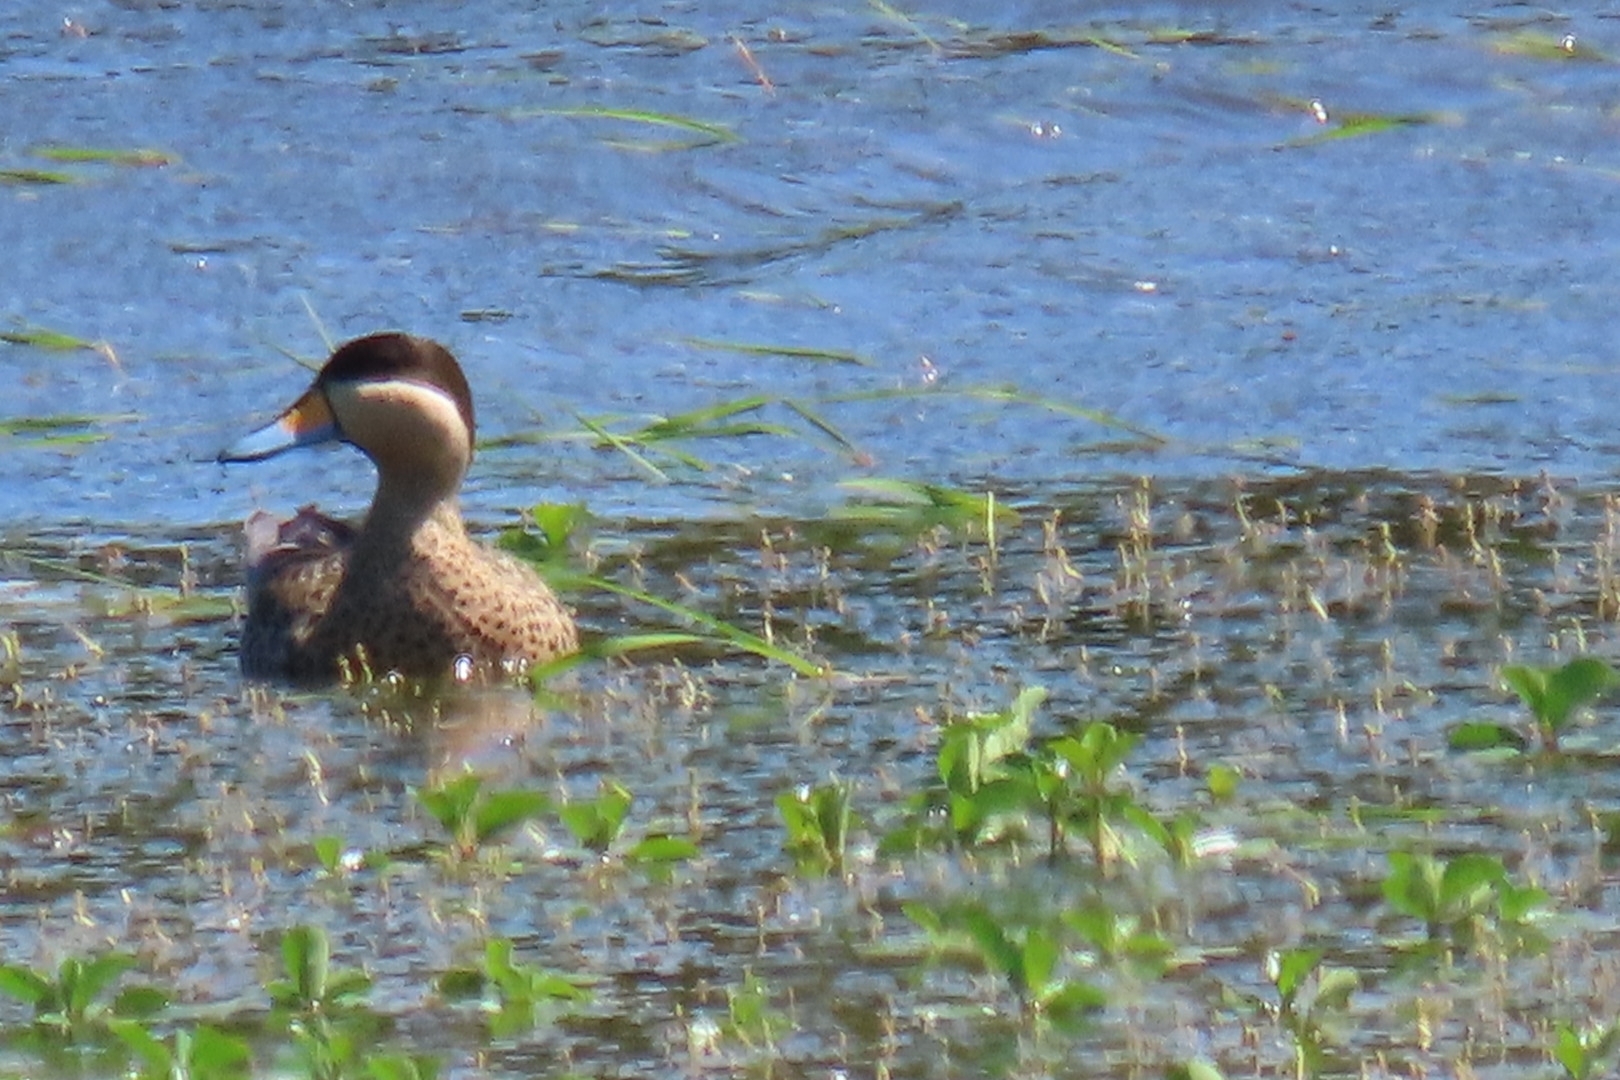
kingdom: Animalia
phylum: Chordata
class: Aves
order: Anseriformes
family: Anatidae
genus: Spatula
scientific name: Spatula versicolor
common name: Silver teal
